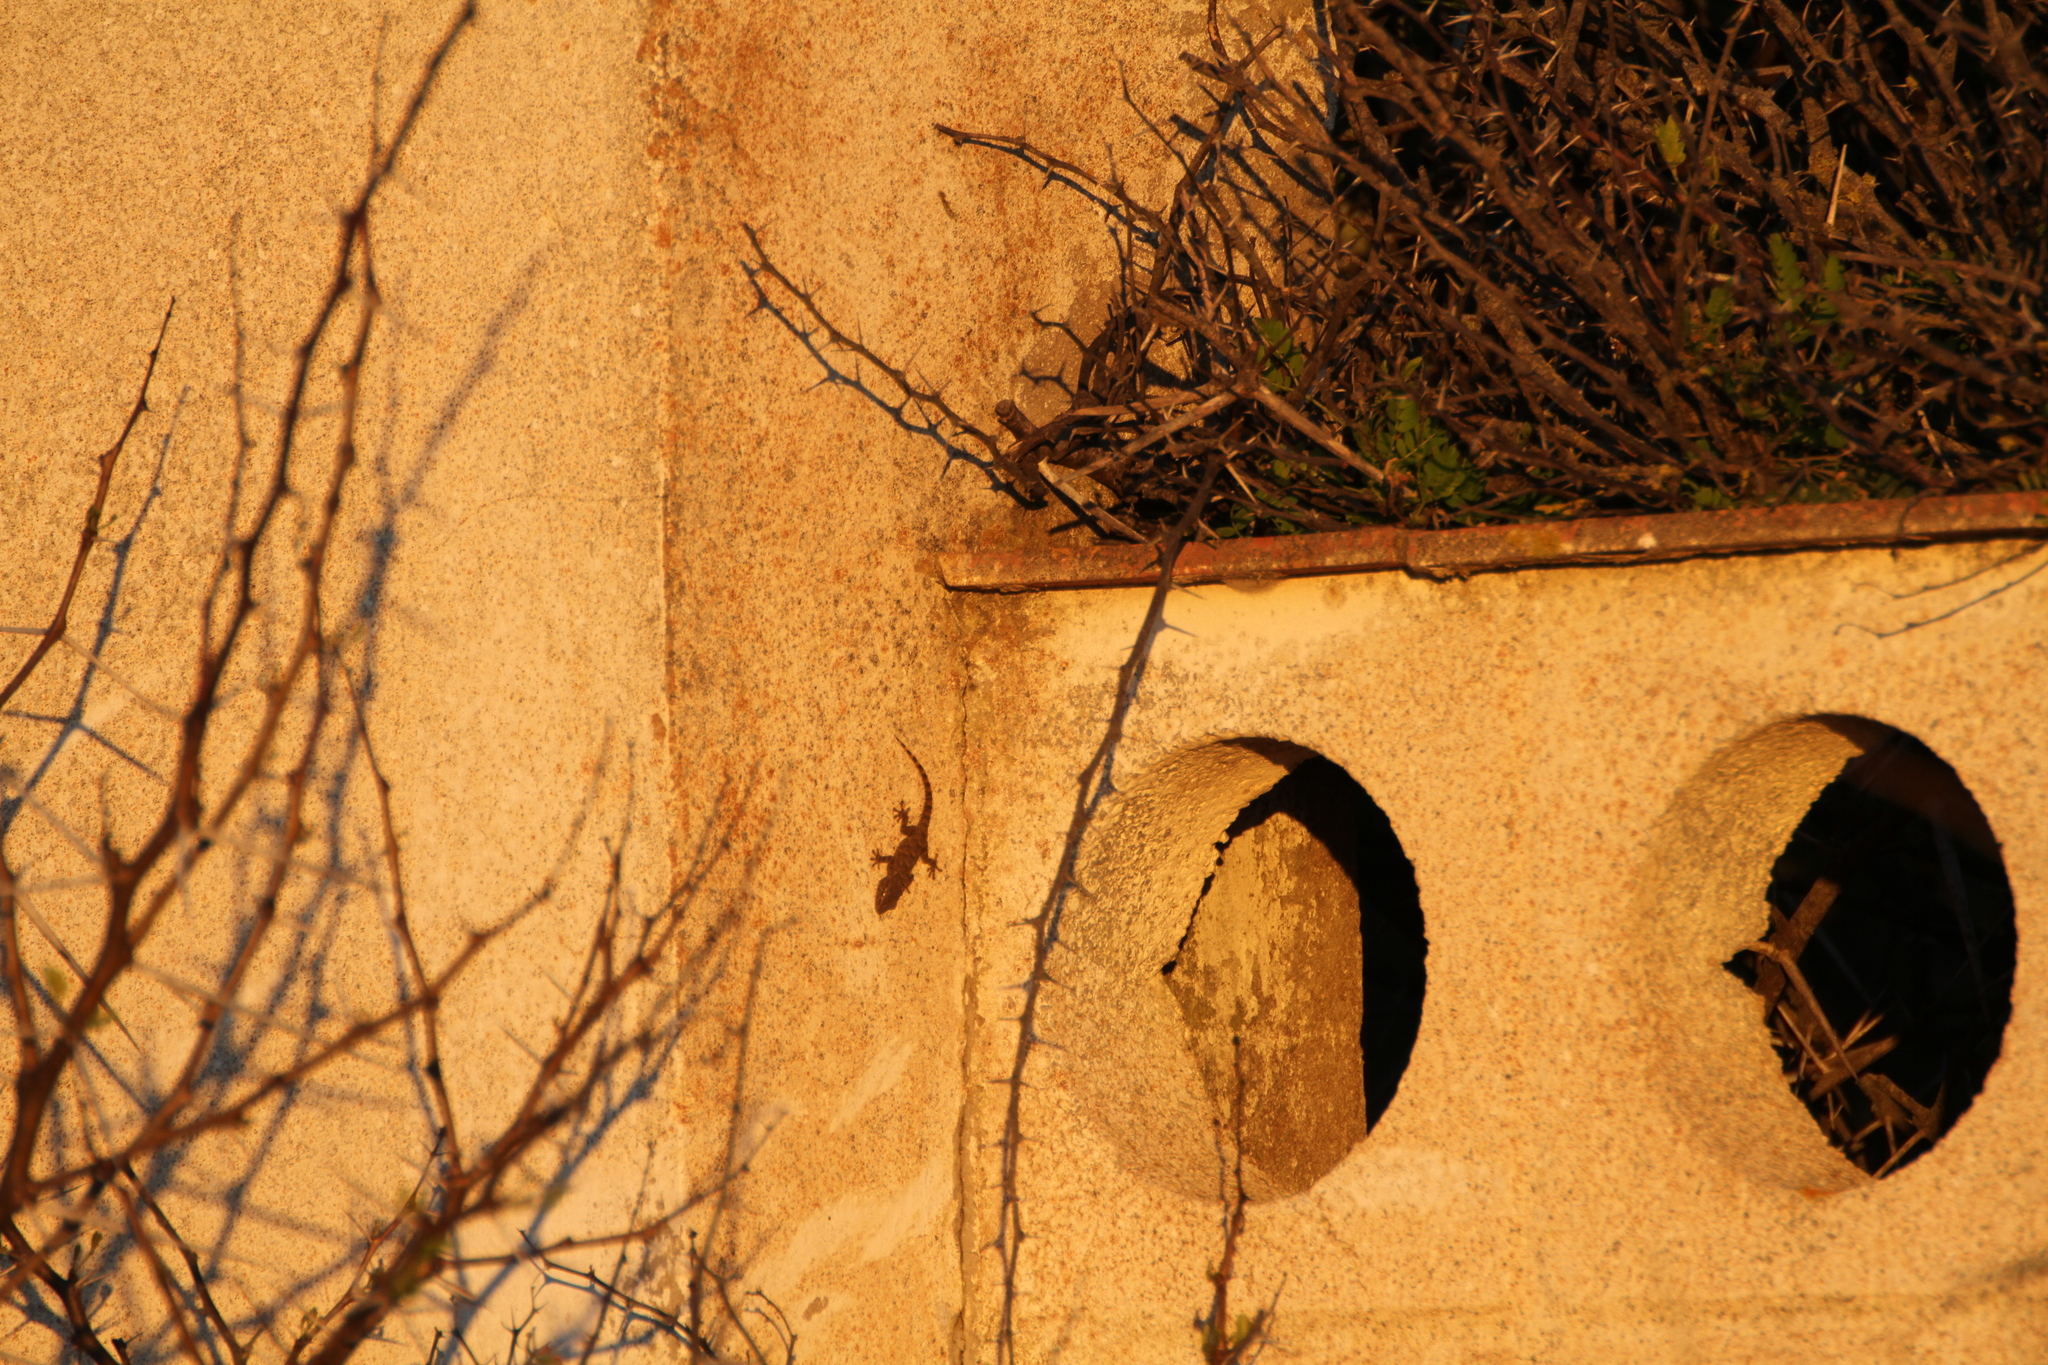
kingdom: Animalia
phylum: Chordata
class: Squamata
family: Phyllodactylidae
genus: Tarentola
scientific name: Tarentola mauritanica
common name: Moorish gecko
